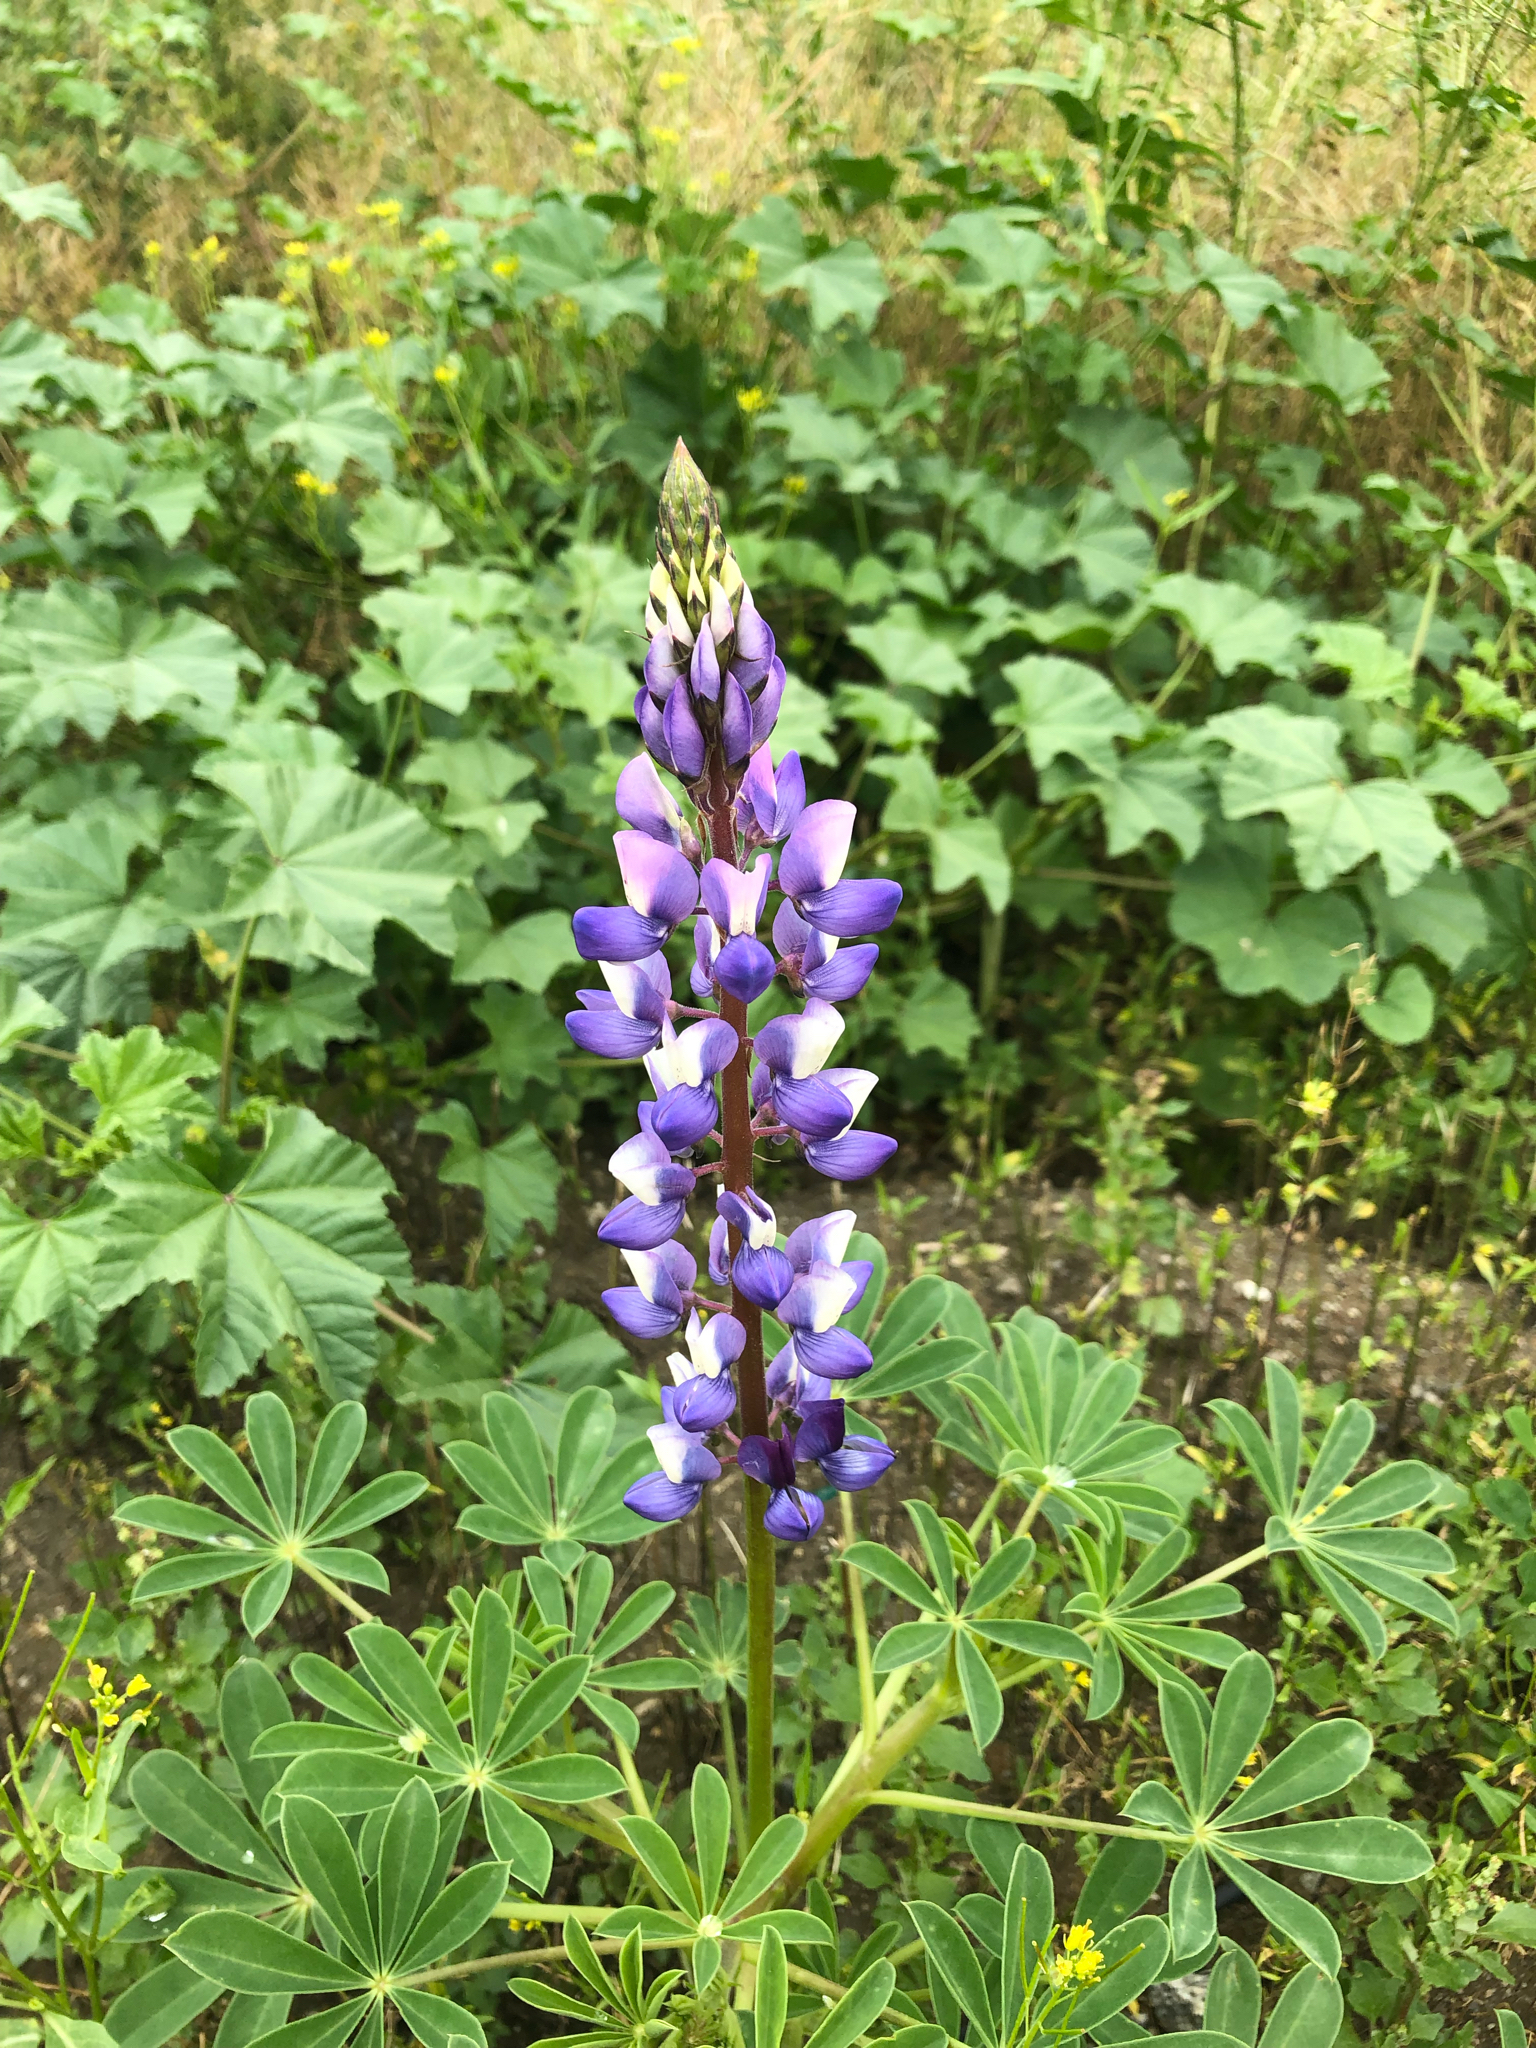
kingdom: Plantae
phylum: Tracheophyta
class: Magnoliopsida
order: Fabales
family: Fabaceae
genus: Lupinus
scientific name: Lupinus succulentus
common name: Arroyo lupine
